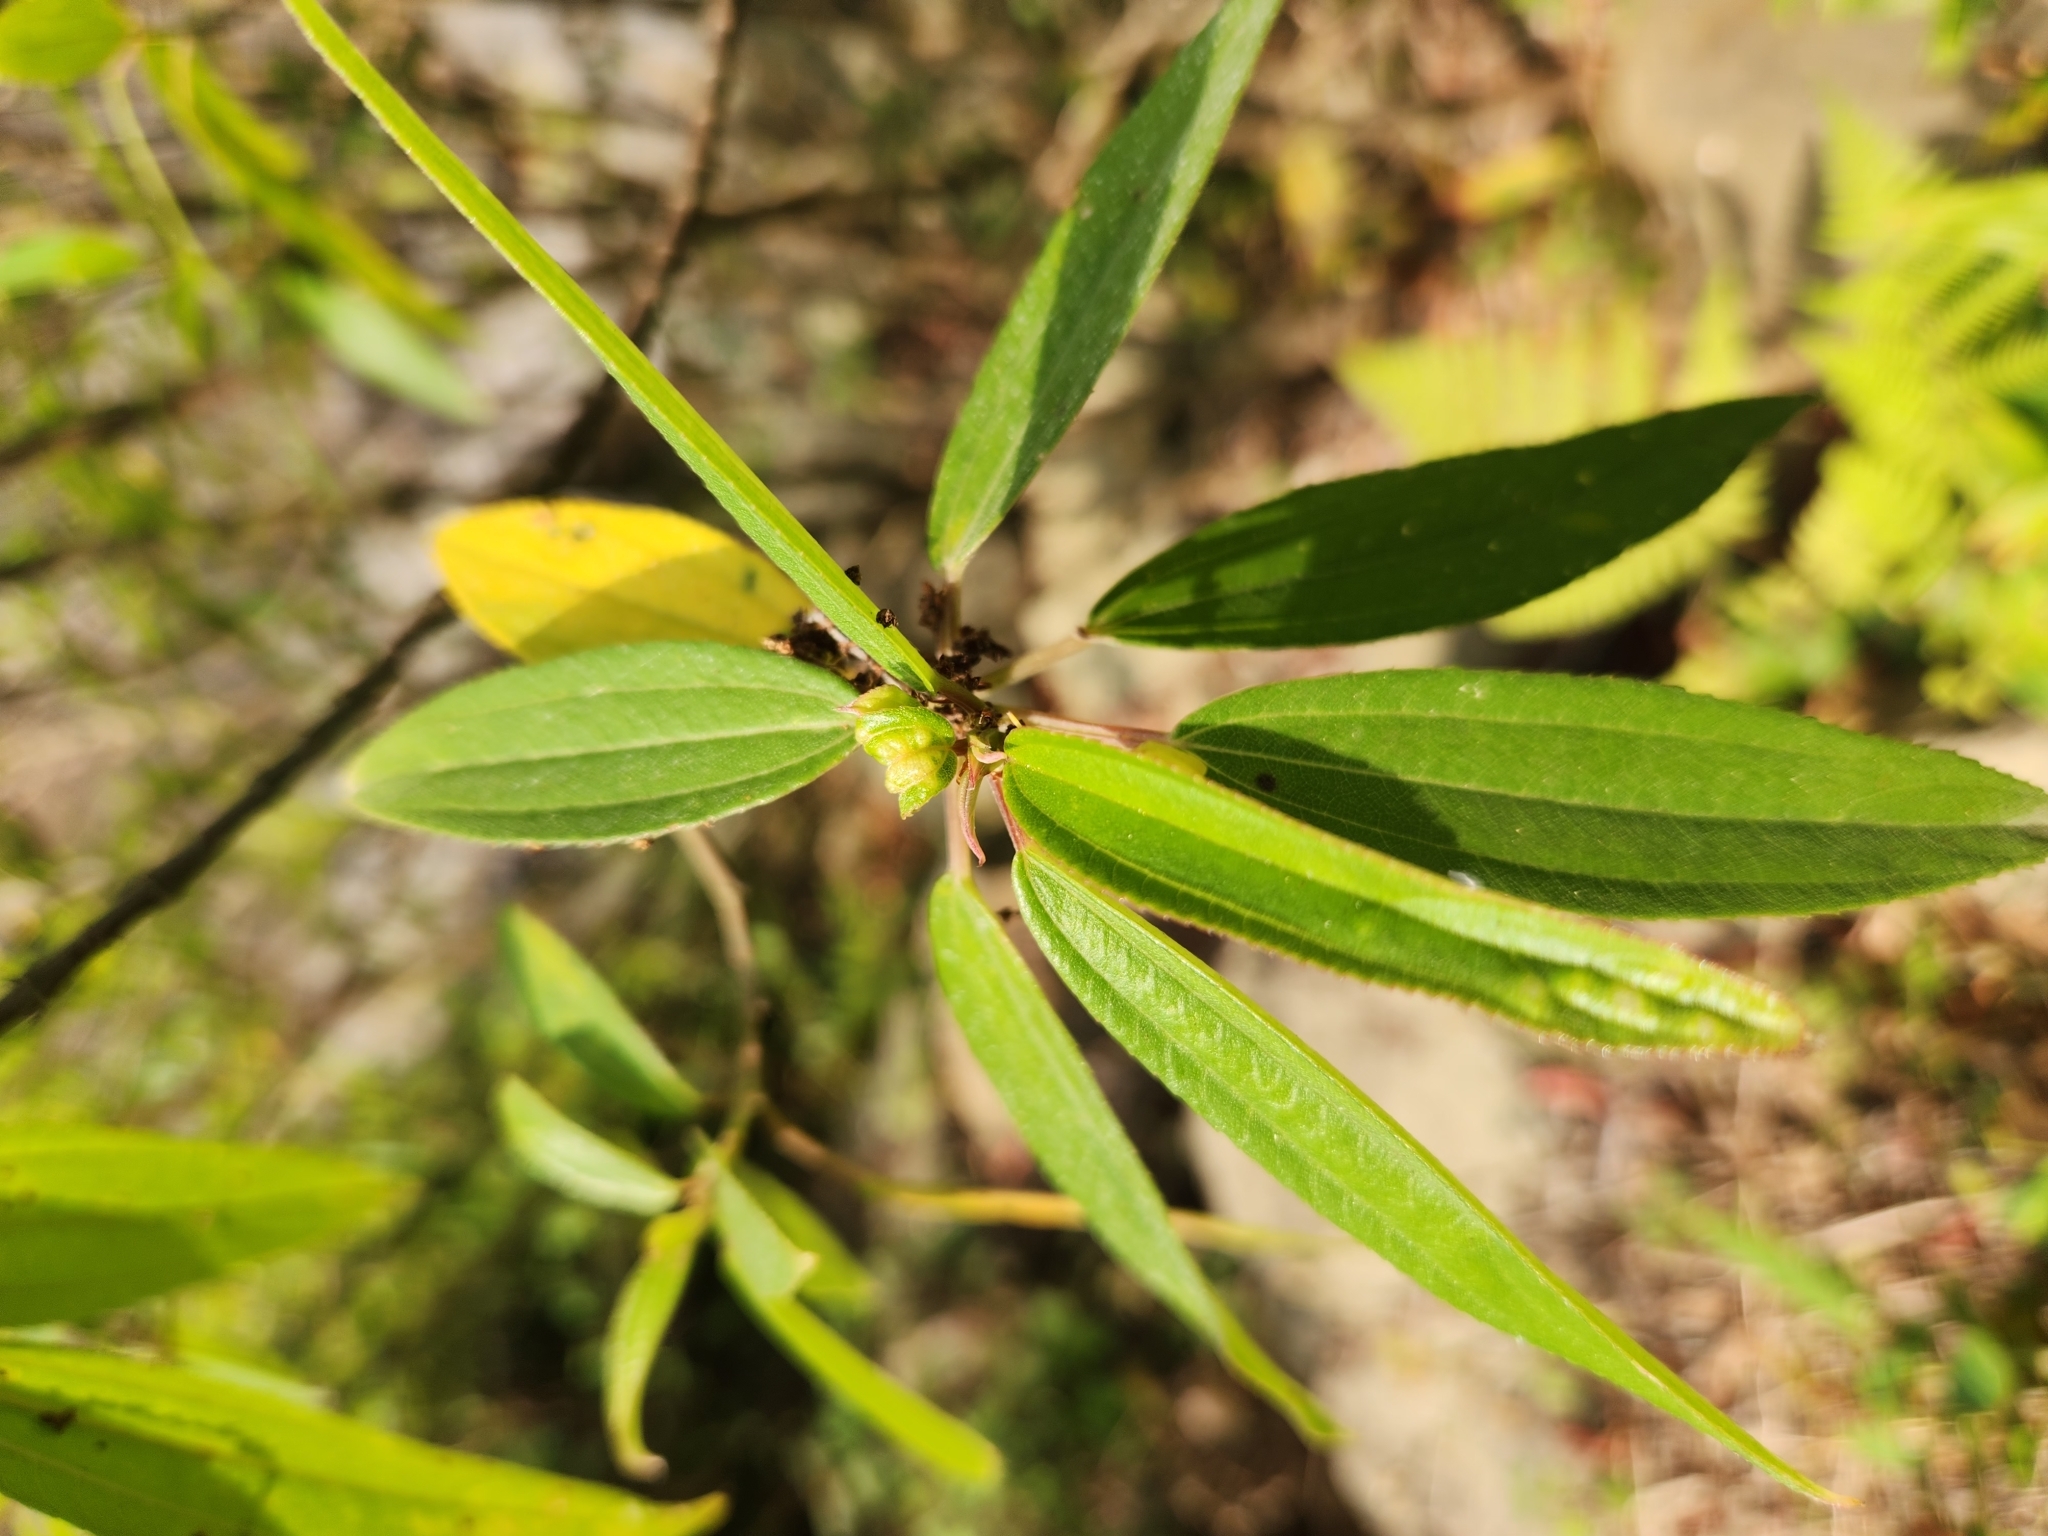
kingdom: Plantae
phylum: Tracheophyta
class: Magnoliopsida
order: Rosales
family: Urticaceae
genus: Boehmeria
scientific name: Boehmeria densiflora
